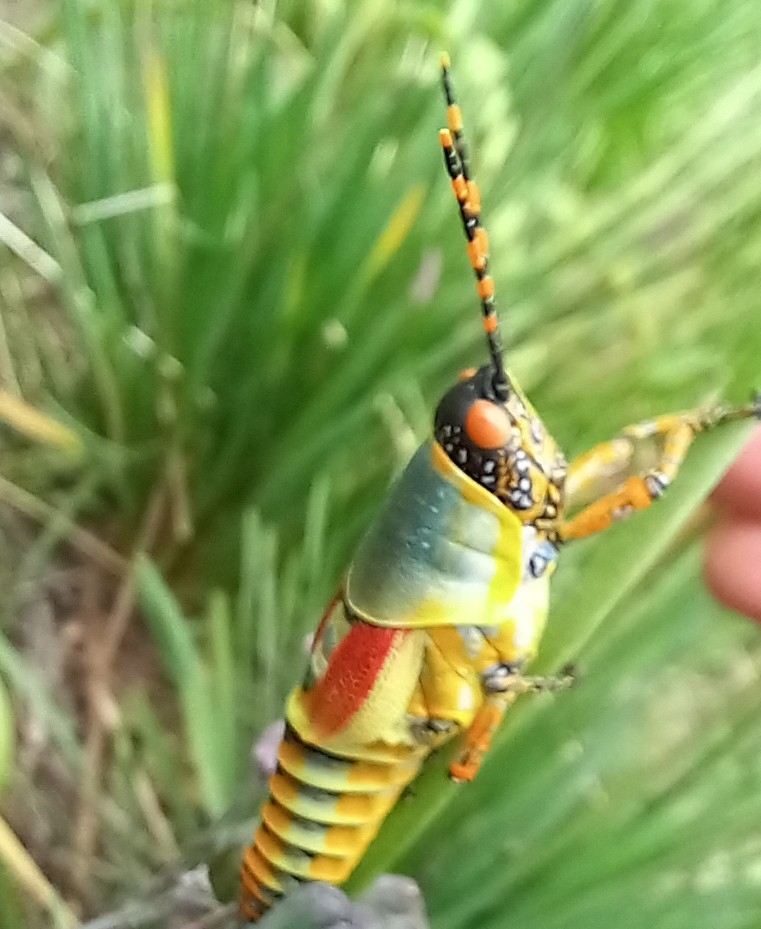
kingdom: Animalia
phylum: Arthropoda
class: Insecta
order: Orthoptera
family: Pyrgomorphidae
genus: Zonocerus
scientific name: Zonocerus elegans
